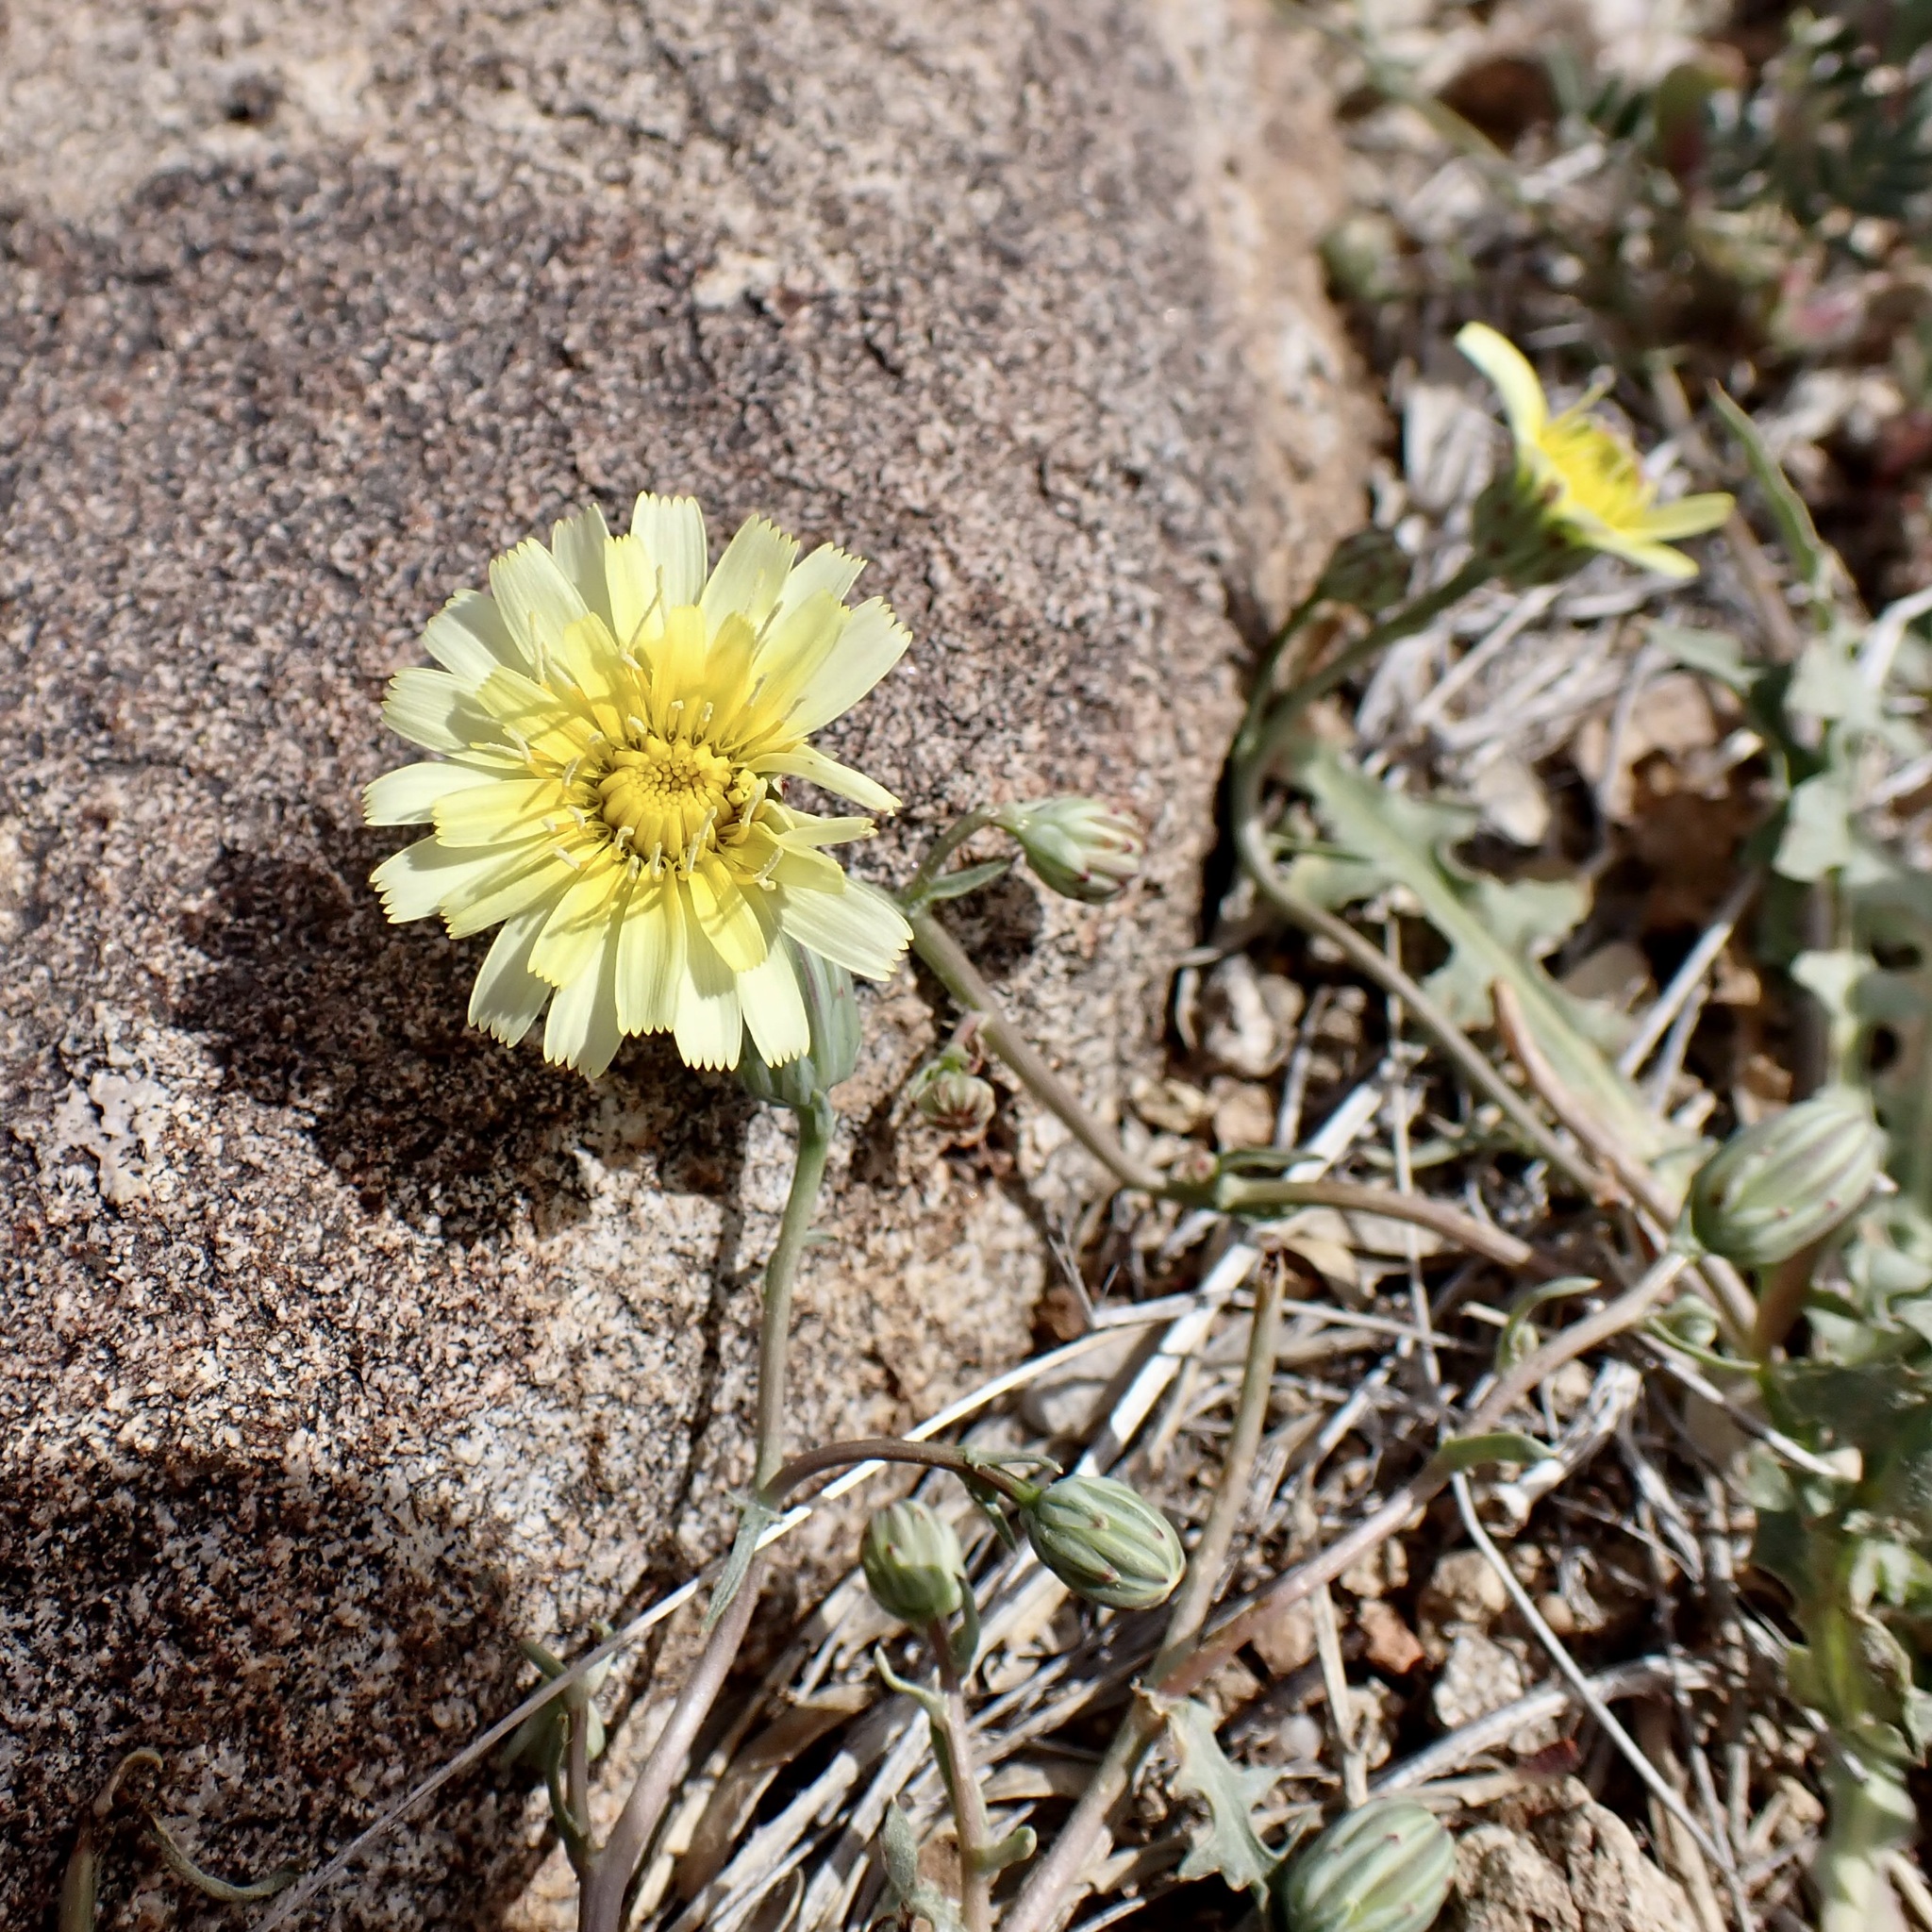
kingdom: Plantae
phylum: Tracheophyta
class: Magnoliopsida
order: Asterales
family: Asteraceae
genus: Malacothrix
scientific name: Malacothrix fendleri
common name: Fendler's desert-dandelion
